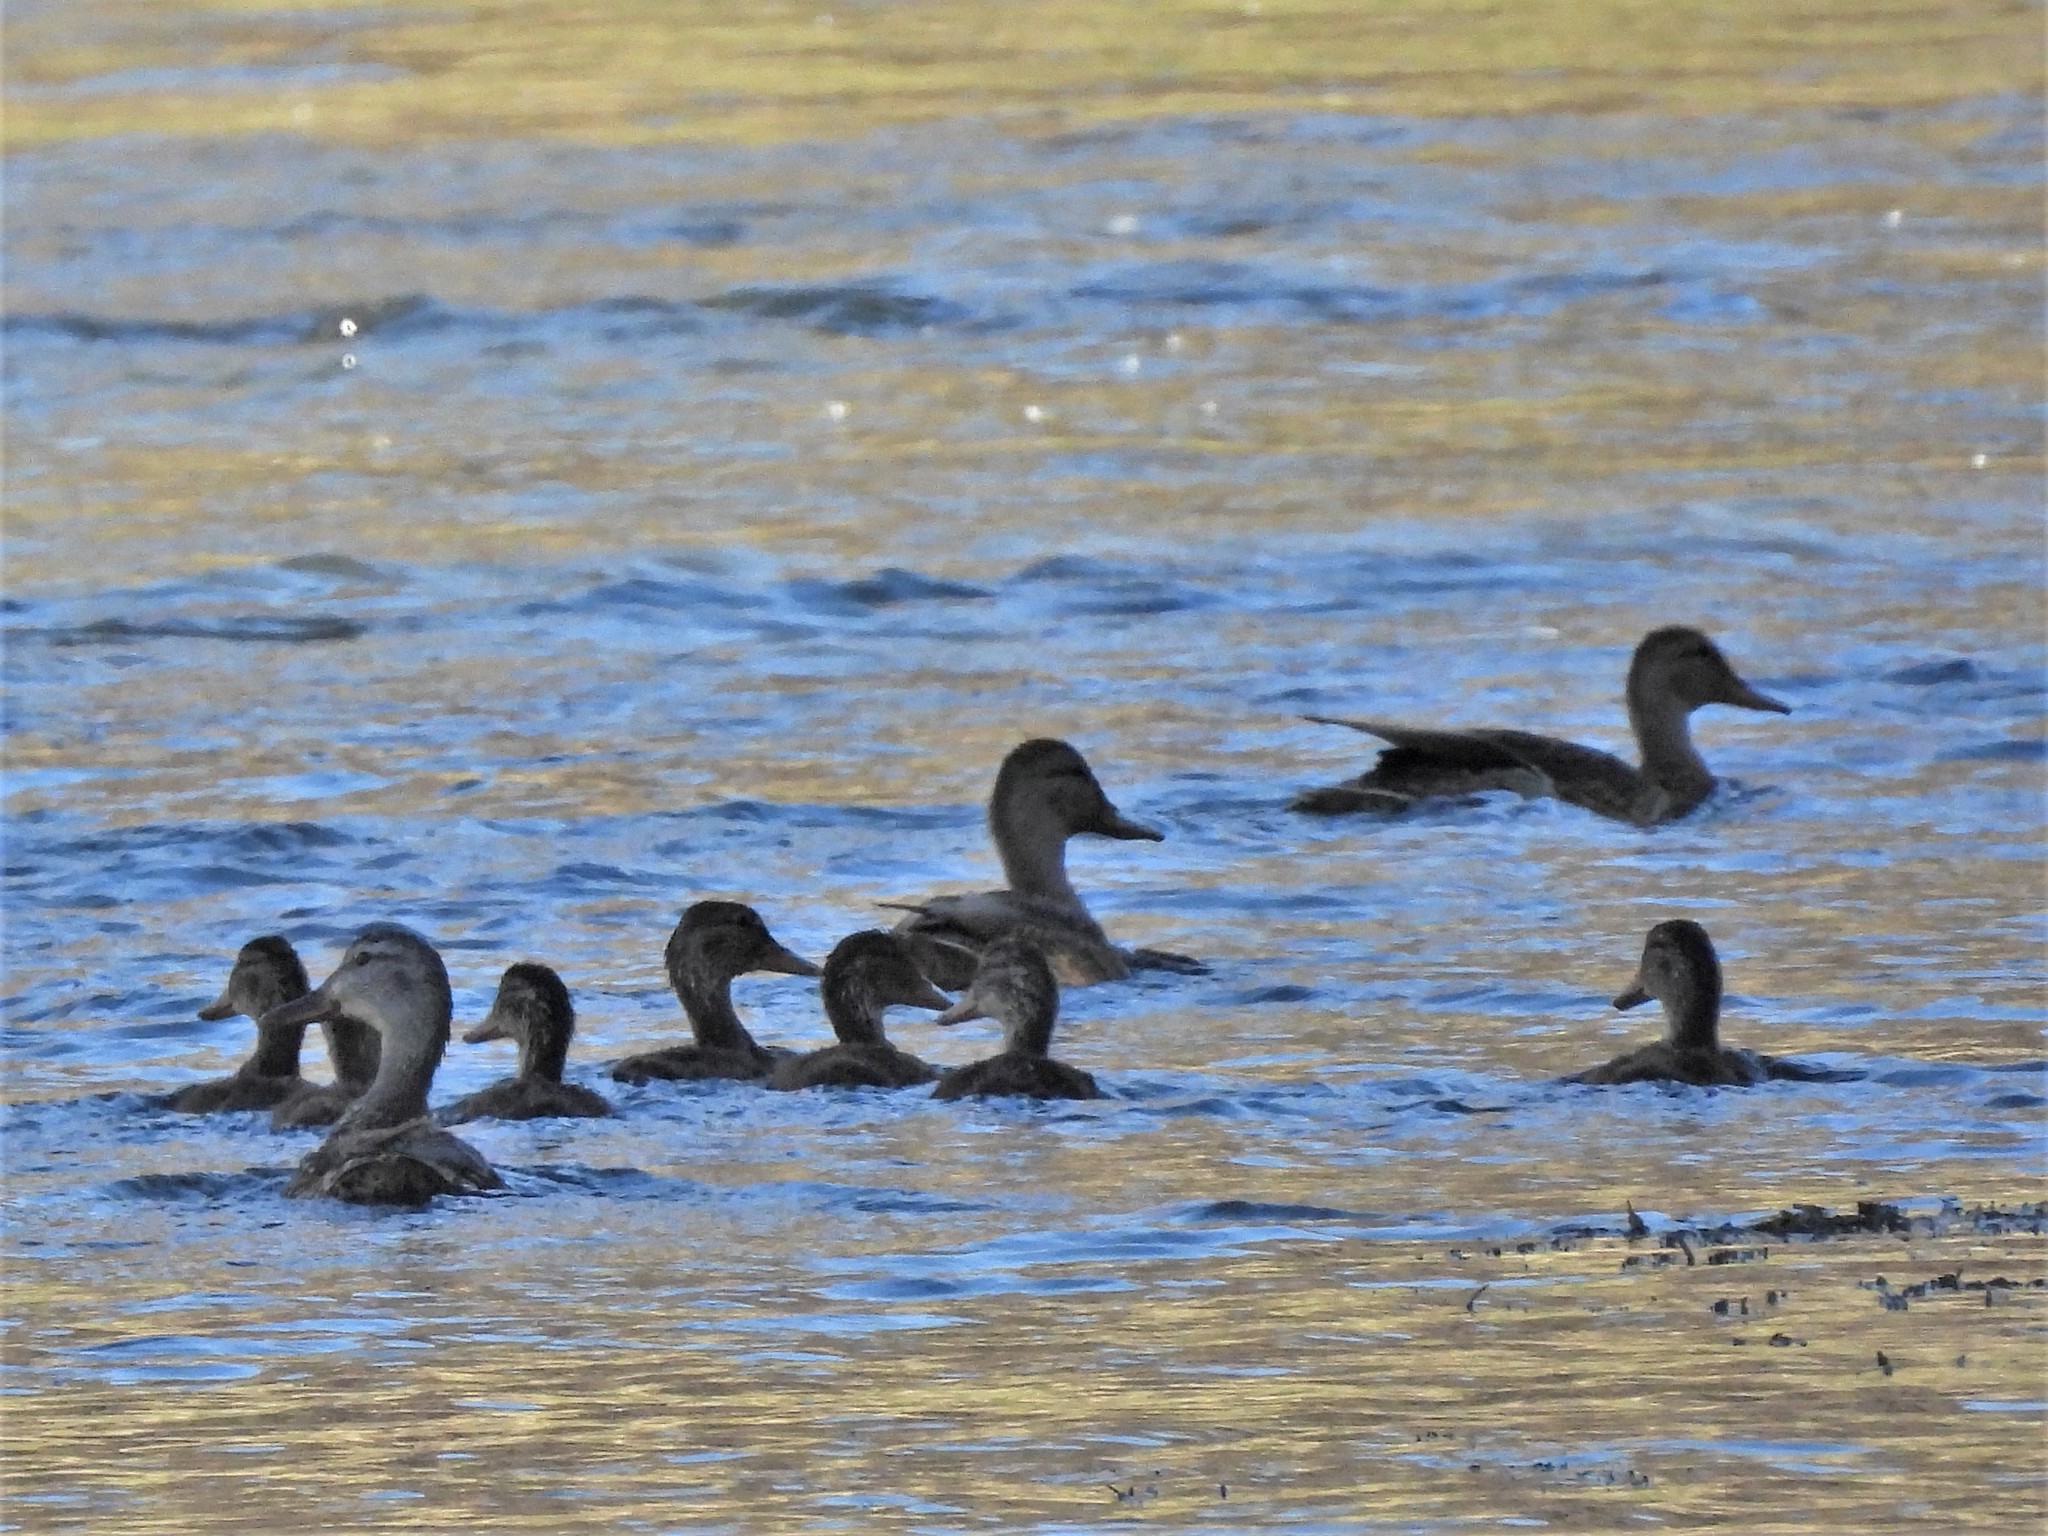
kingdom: Animalia
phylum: Chordata
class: Aves
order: Anseriformes
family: Anatidae
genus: Anas
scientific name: Anas platyrhynchos
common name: Mallard
